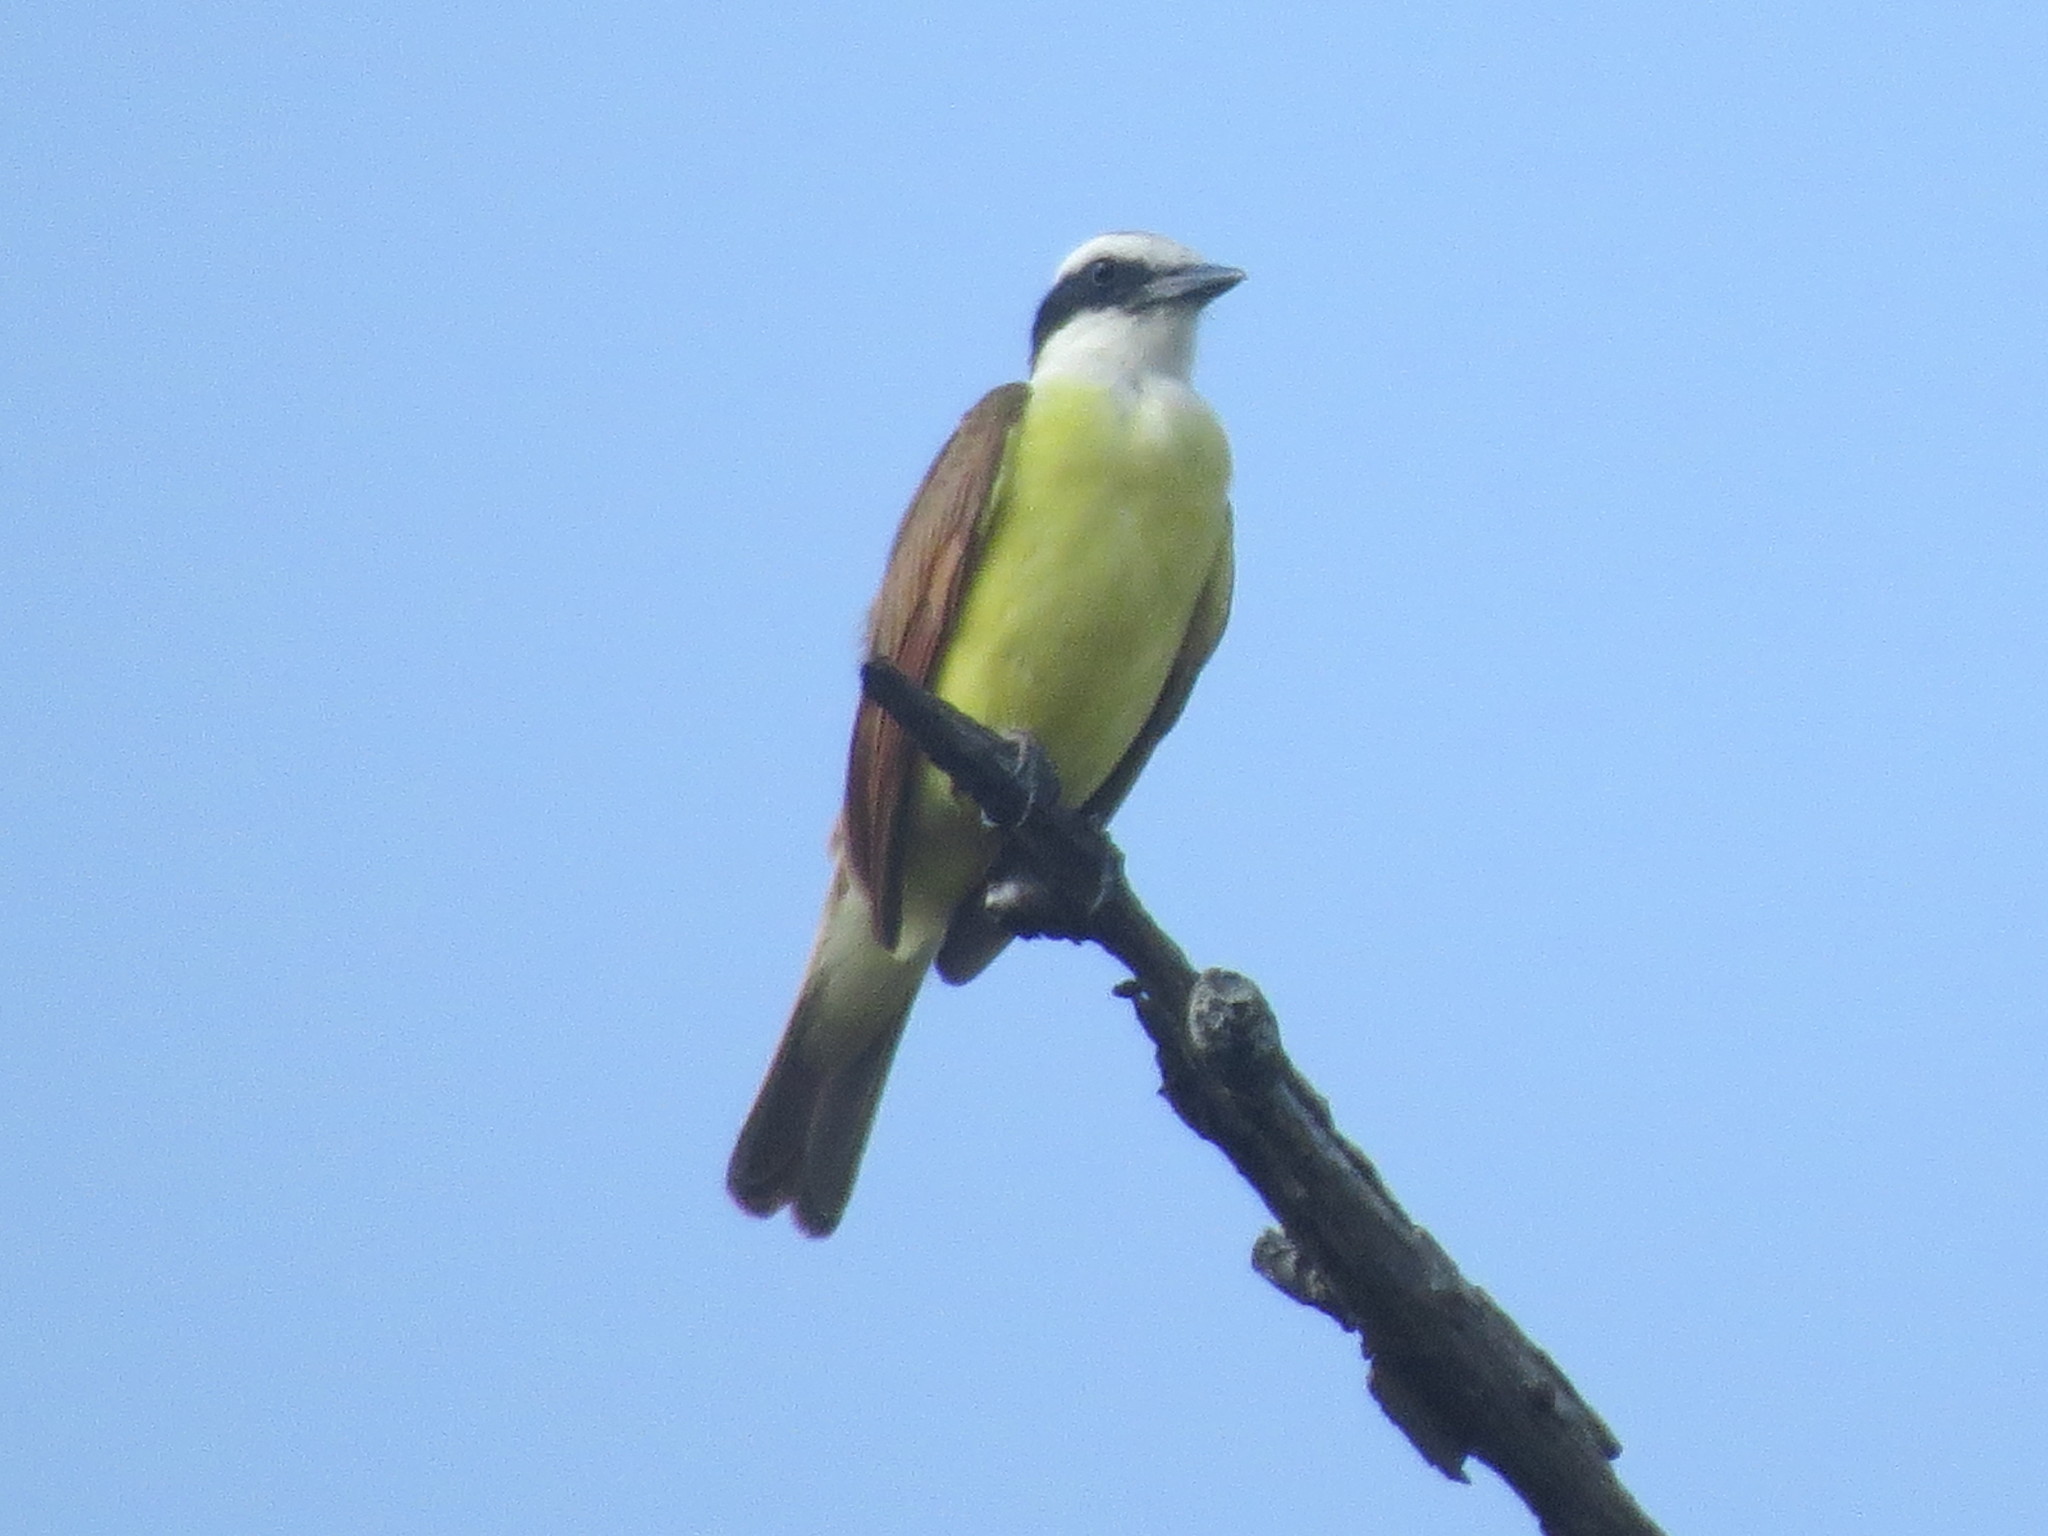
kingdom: Animalia
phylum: Chordata
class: Aves
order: Passeriformes
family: Tyrannidae
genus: Pitangus
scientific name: Pitangus sulphuratus
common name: Great kiskadee
